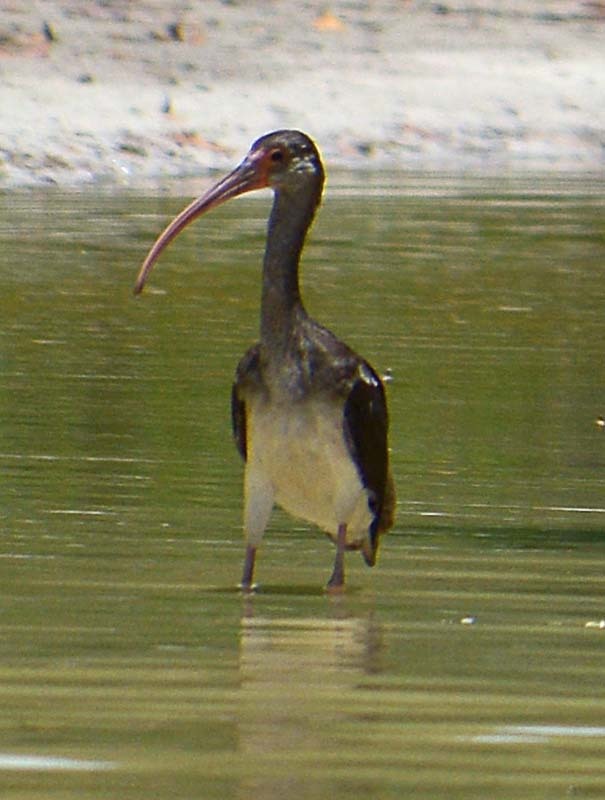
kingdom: Animalia
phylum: Chordata
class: Aves
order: Pelecaniformes
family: Threskiornithidae
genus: Eudocimus
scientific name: Eudocimus albus
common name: White ibis
